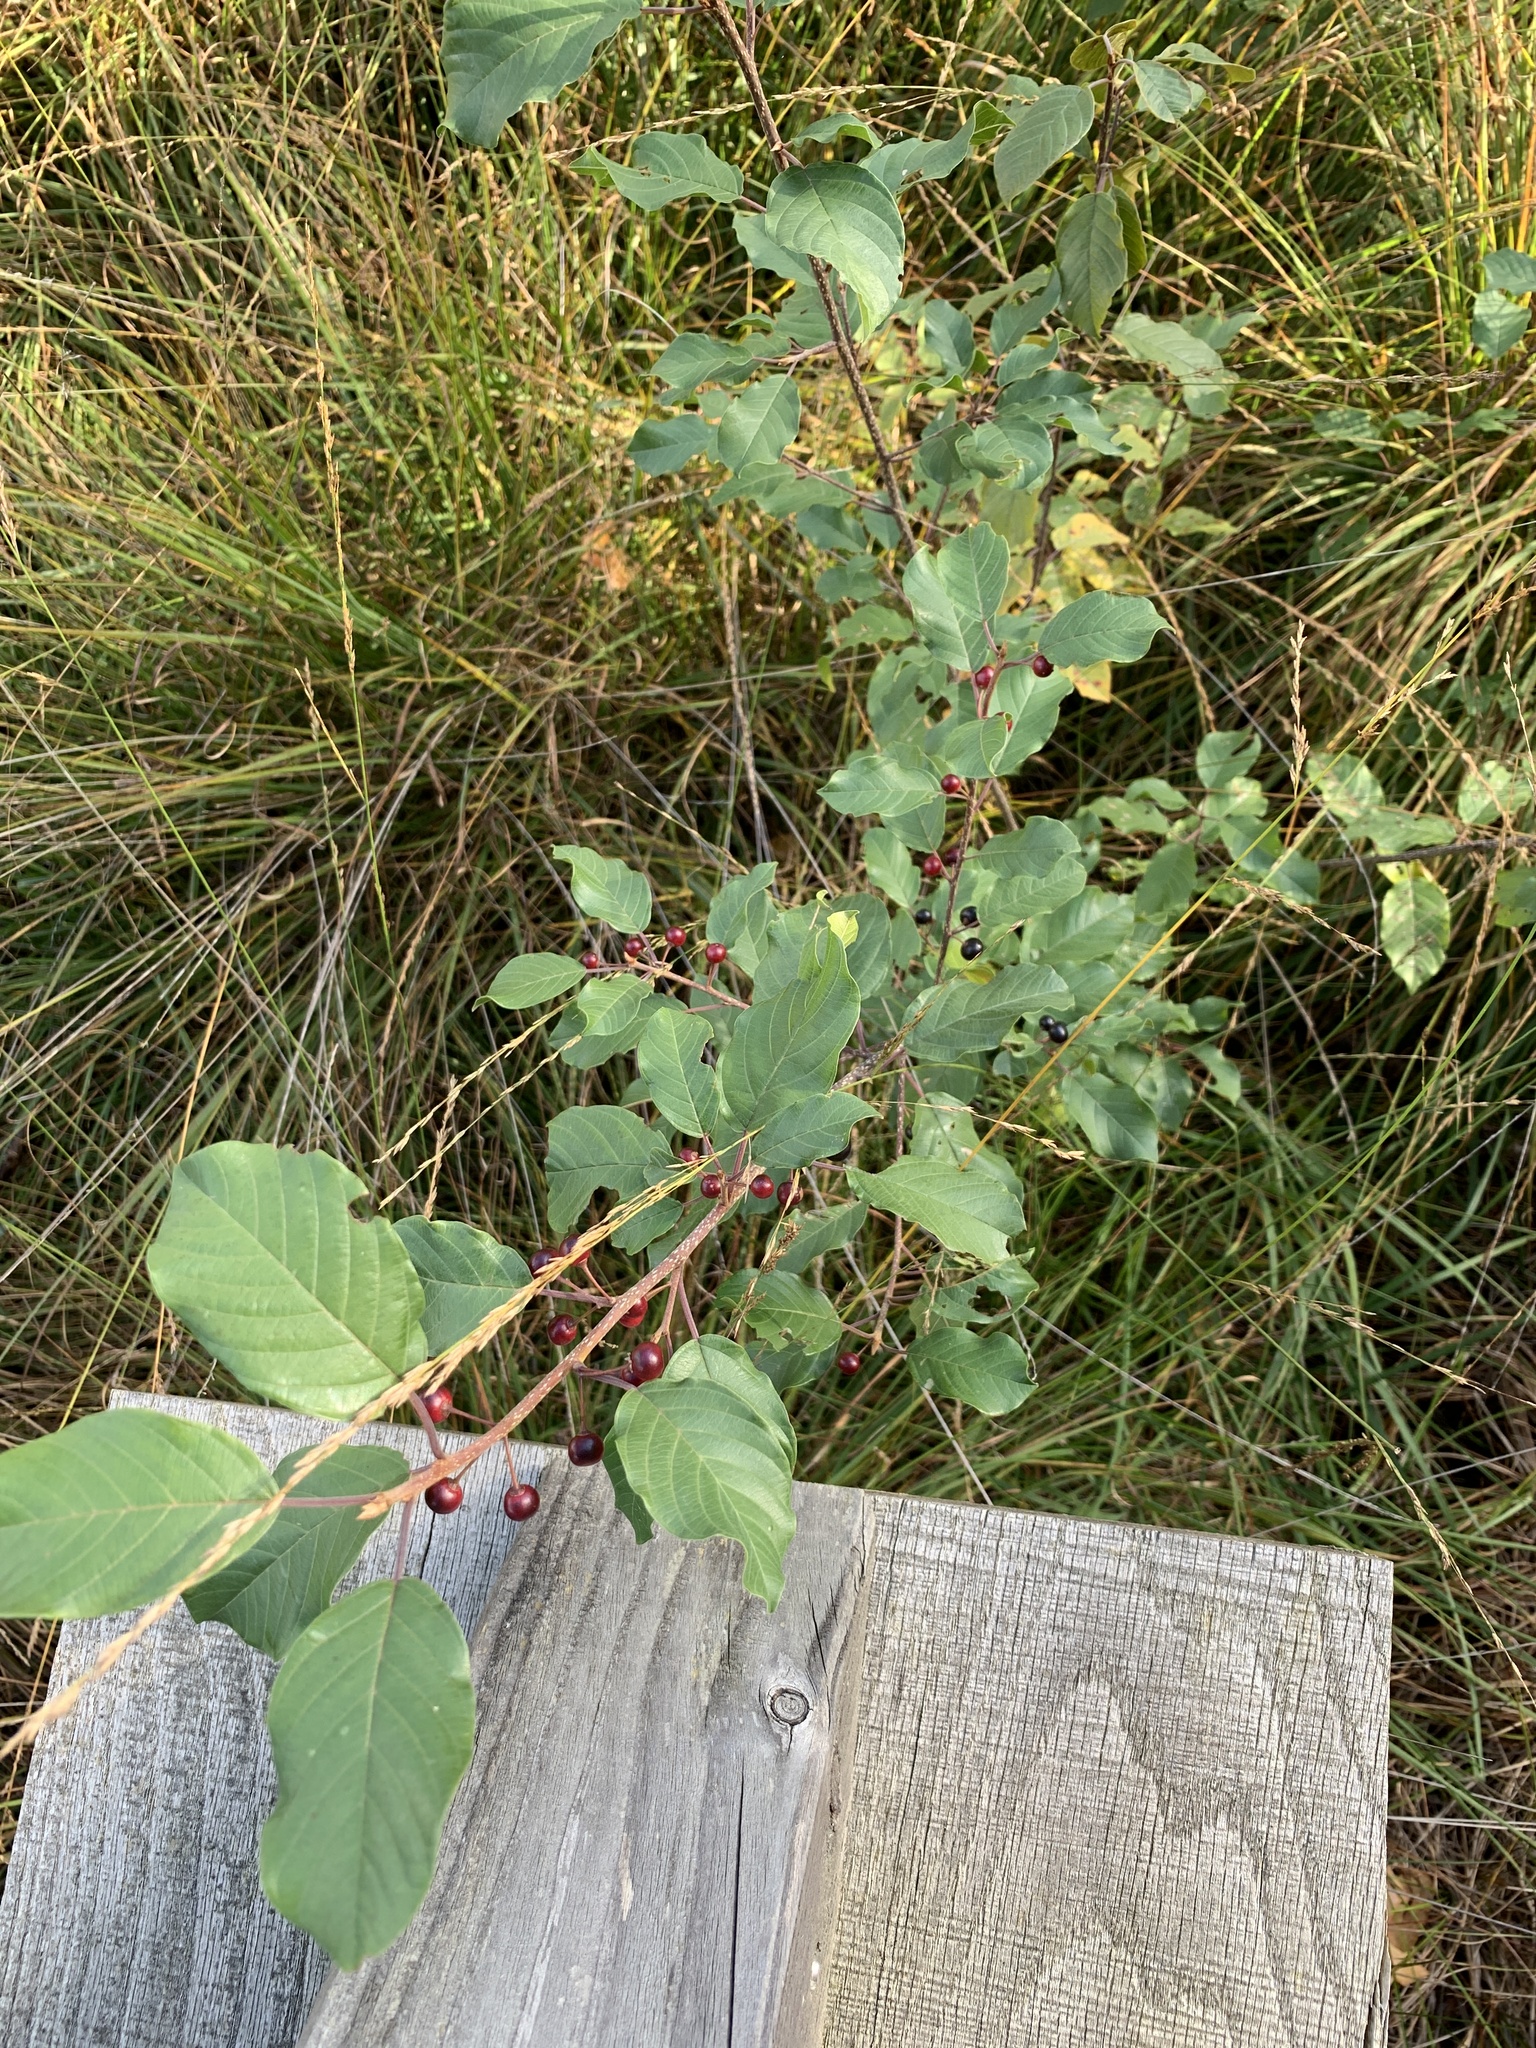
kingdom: Plantae
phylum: Tracheophyta
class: Magnoliopsida
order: Rosales
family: Rhamnaceae
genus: Frangula
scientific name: Frangula alnus
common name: Alder buckthorn
